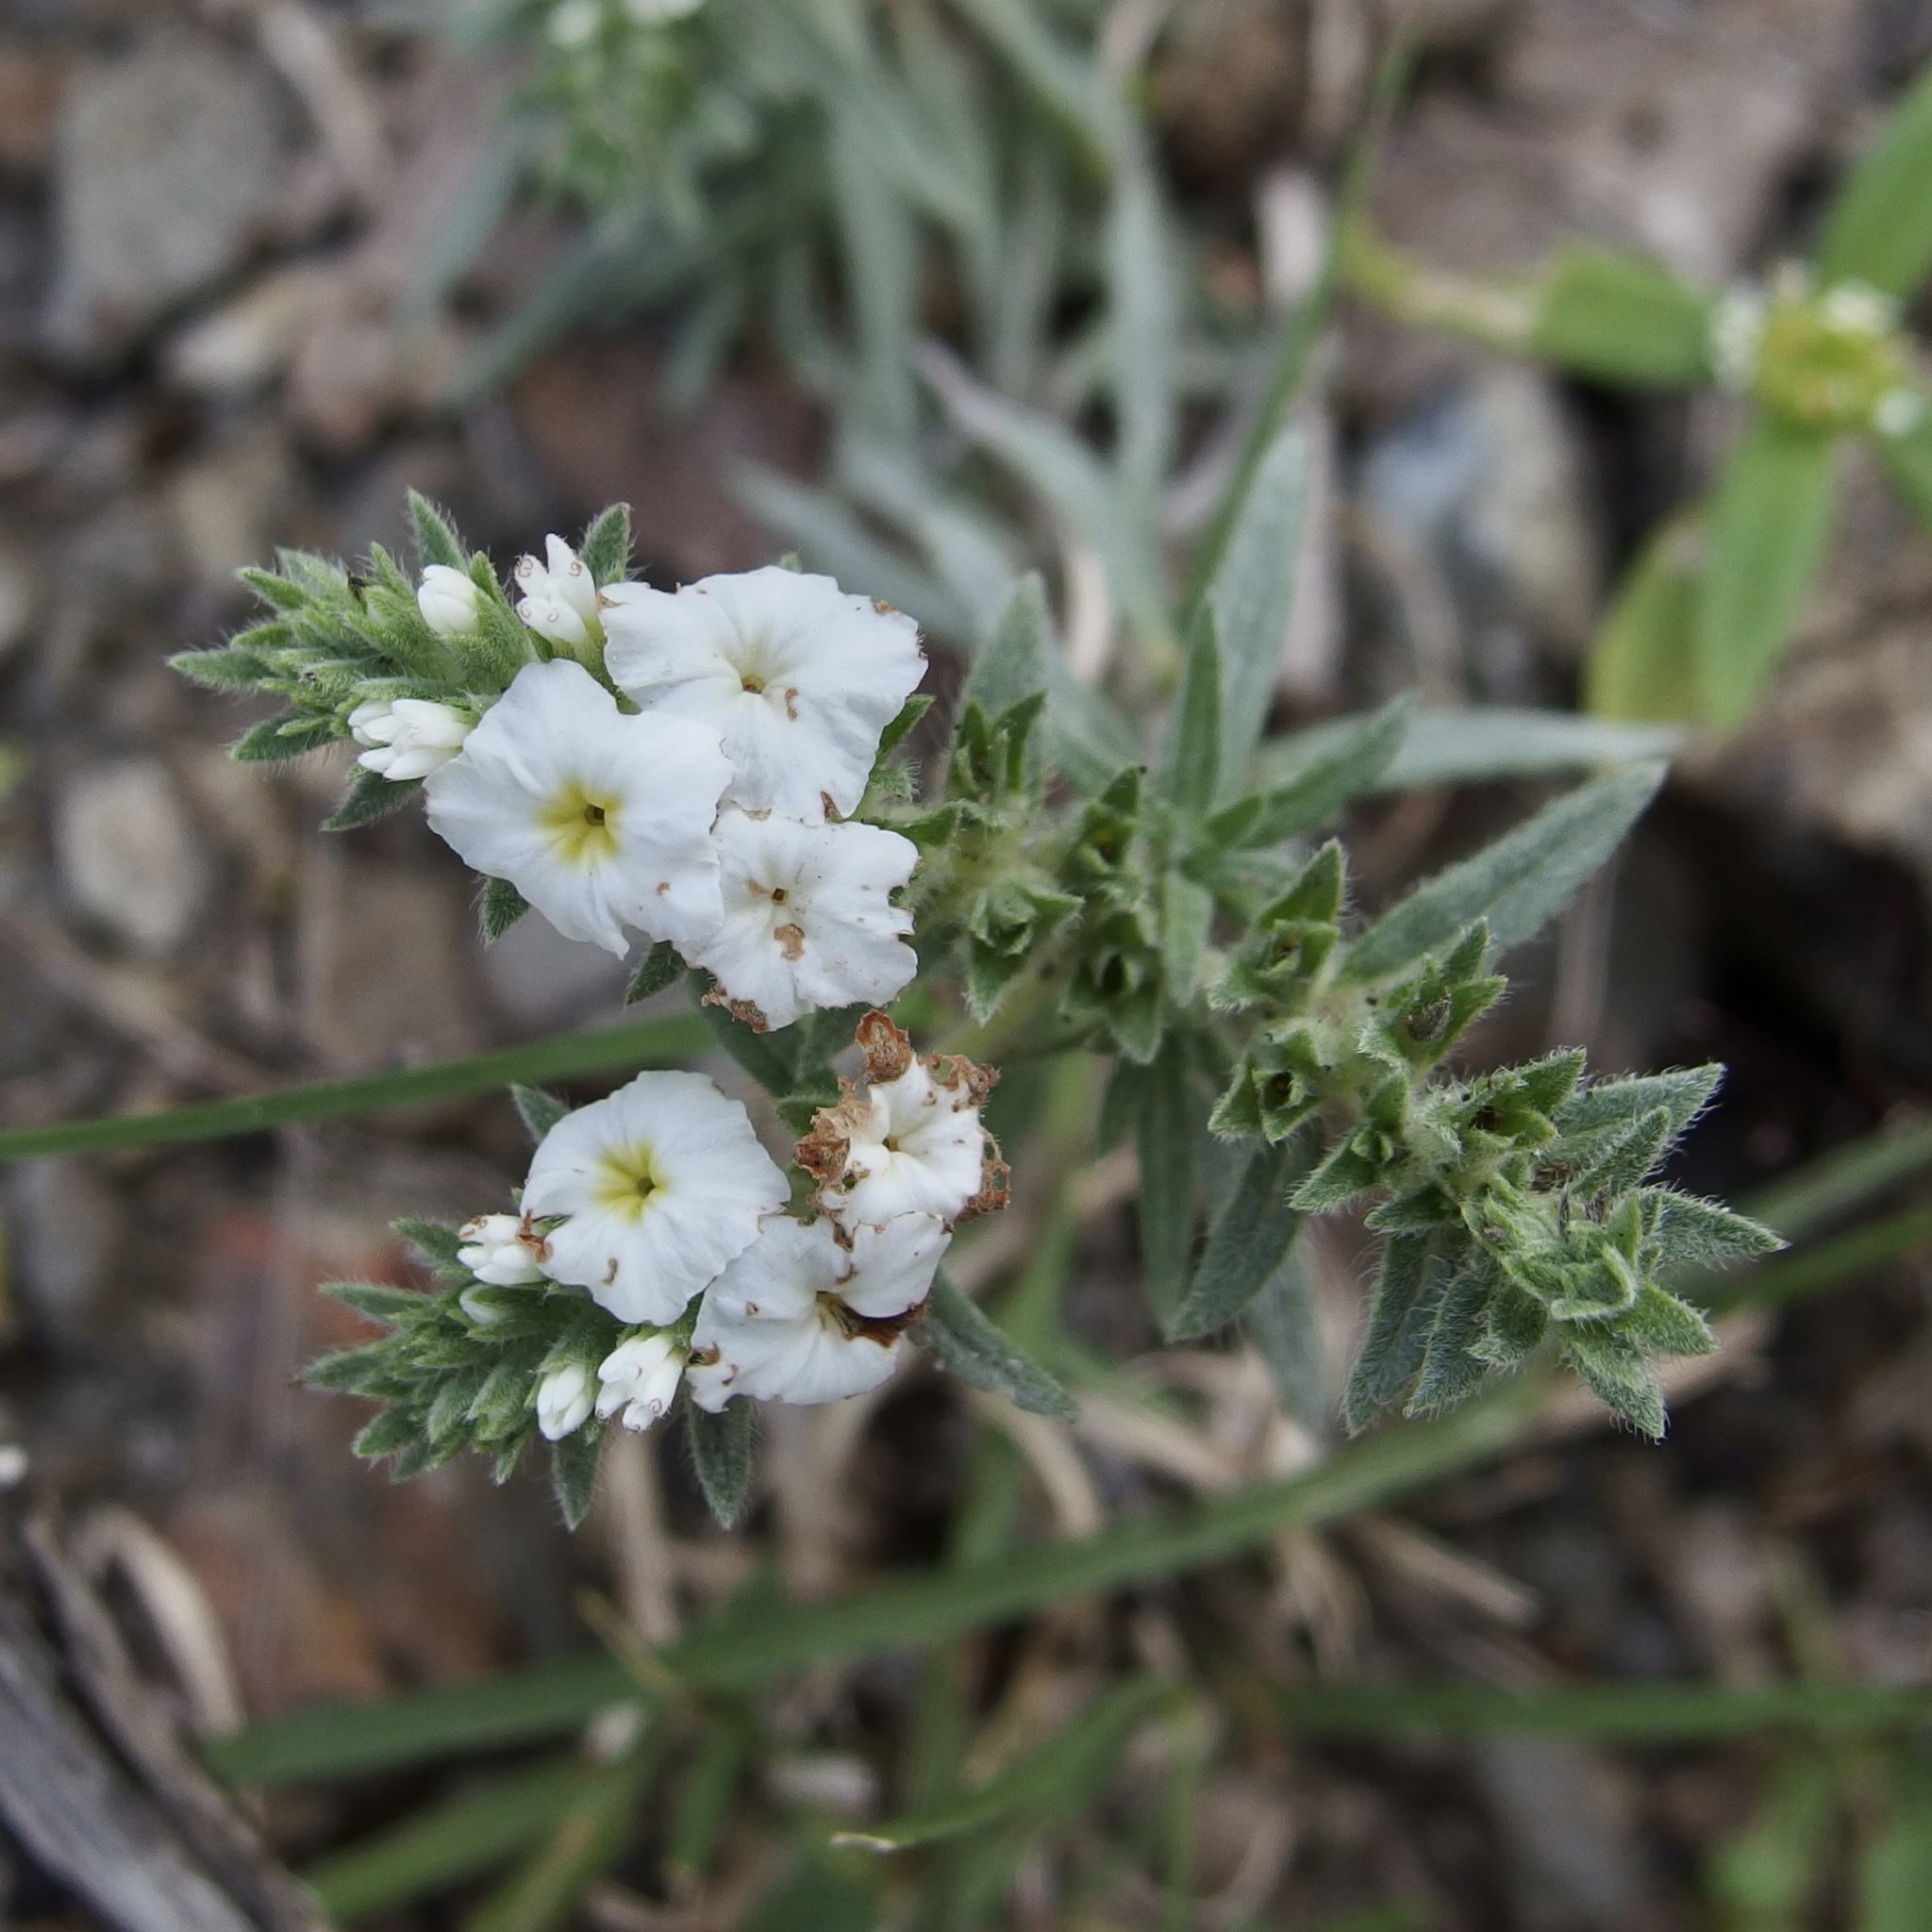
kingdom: Plantae
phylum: Tracheophyta
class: Magnoliopsida
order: Boraginales
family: Heliotropiaceae
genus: Euploca
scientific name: Euploca limbata
